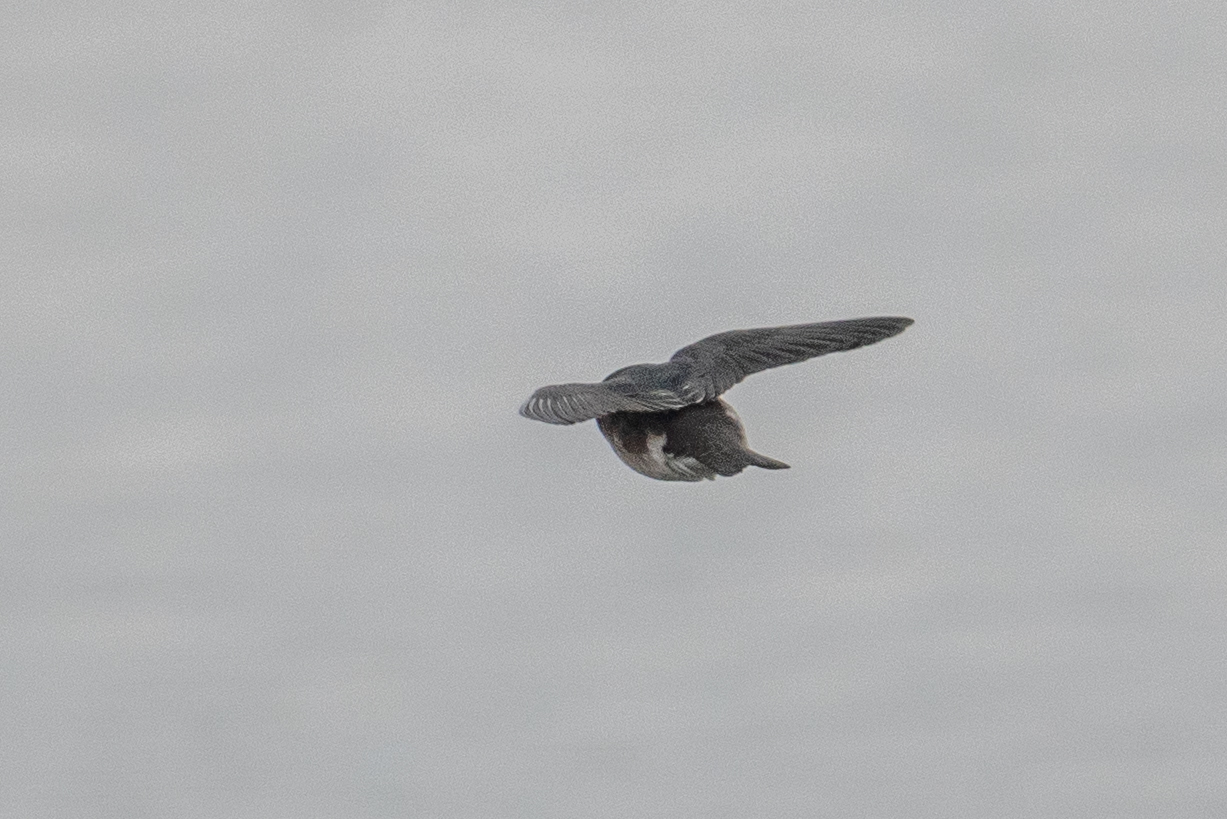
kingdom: Animalia
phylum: Chordata
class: Aves
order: Passeriformes
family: Hirundinidae
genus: Tachycineta
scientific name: Tachycineta bicolor
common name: Tree swallow
